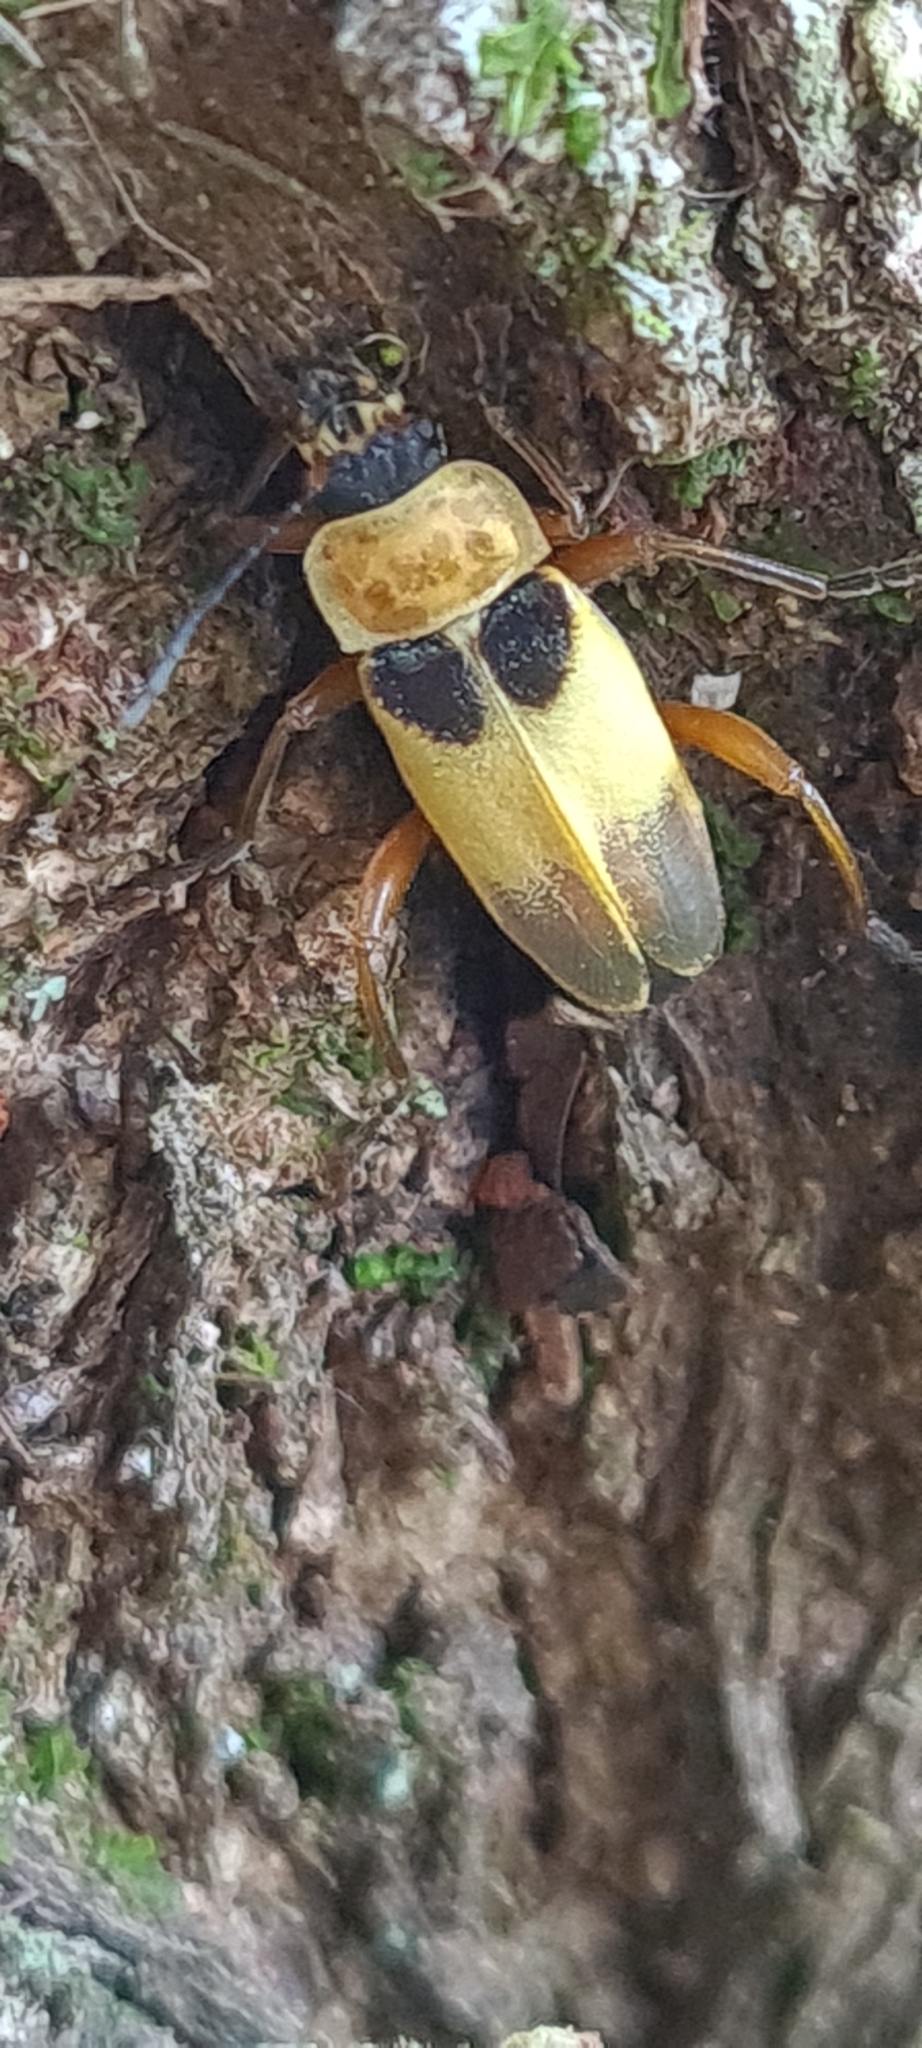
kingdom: Animalia
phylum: Arthropoda
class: Insecta
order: Coleoptera
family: Cantharidae
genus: Chauliognathus
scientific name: Chauliognathus
